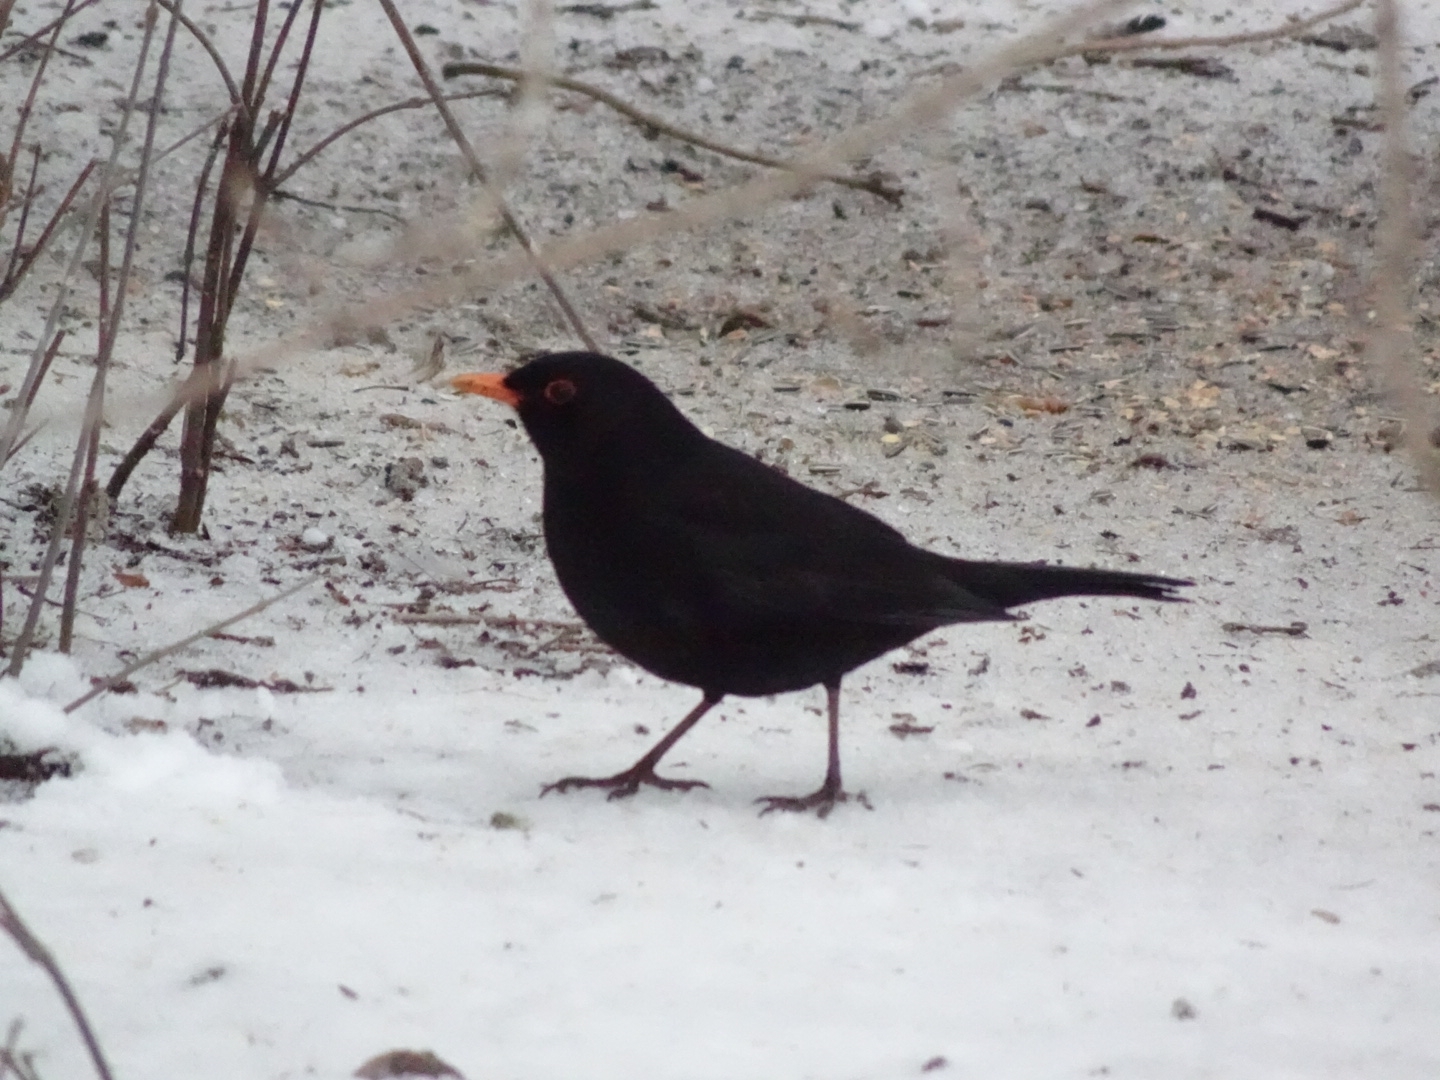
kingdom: Animalia
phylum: Chordata
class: Aves
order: Passeriformes
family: Turdidae
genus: Turdus
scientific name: Turdus merula
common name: Common blackbird
